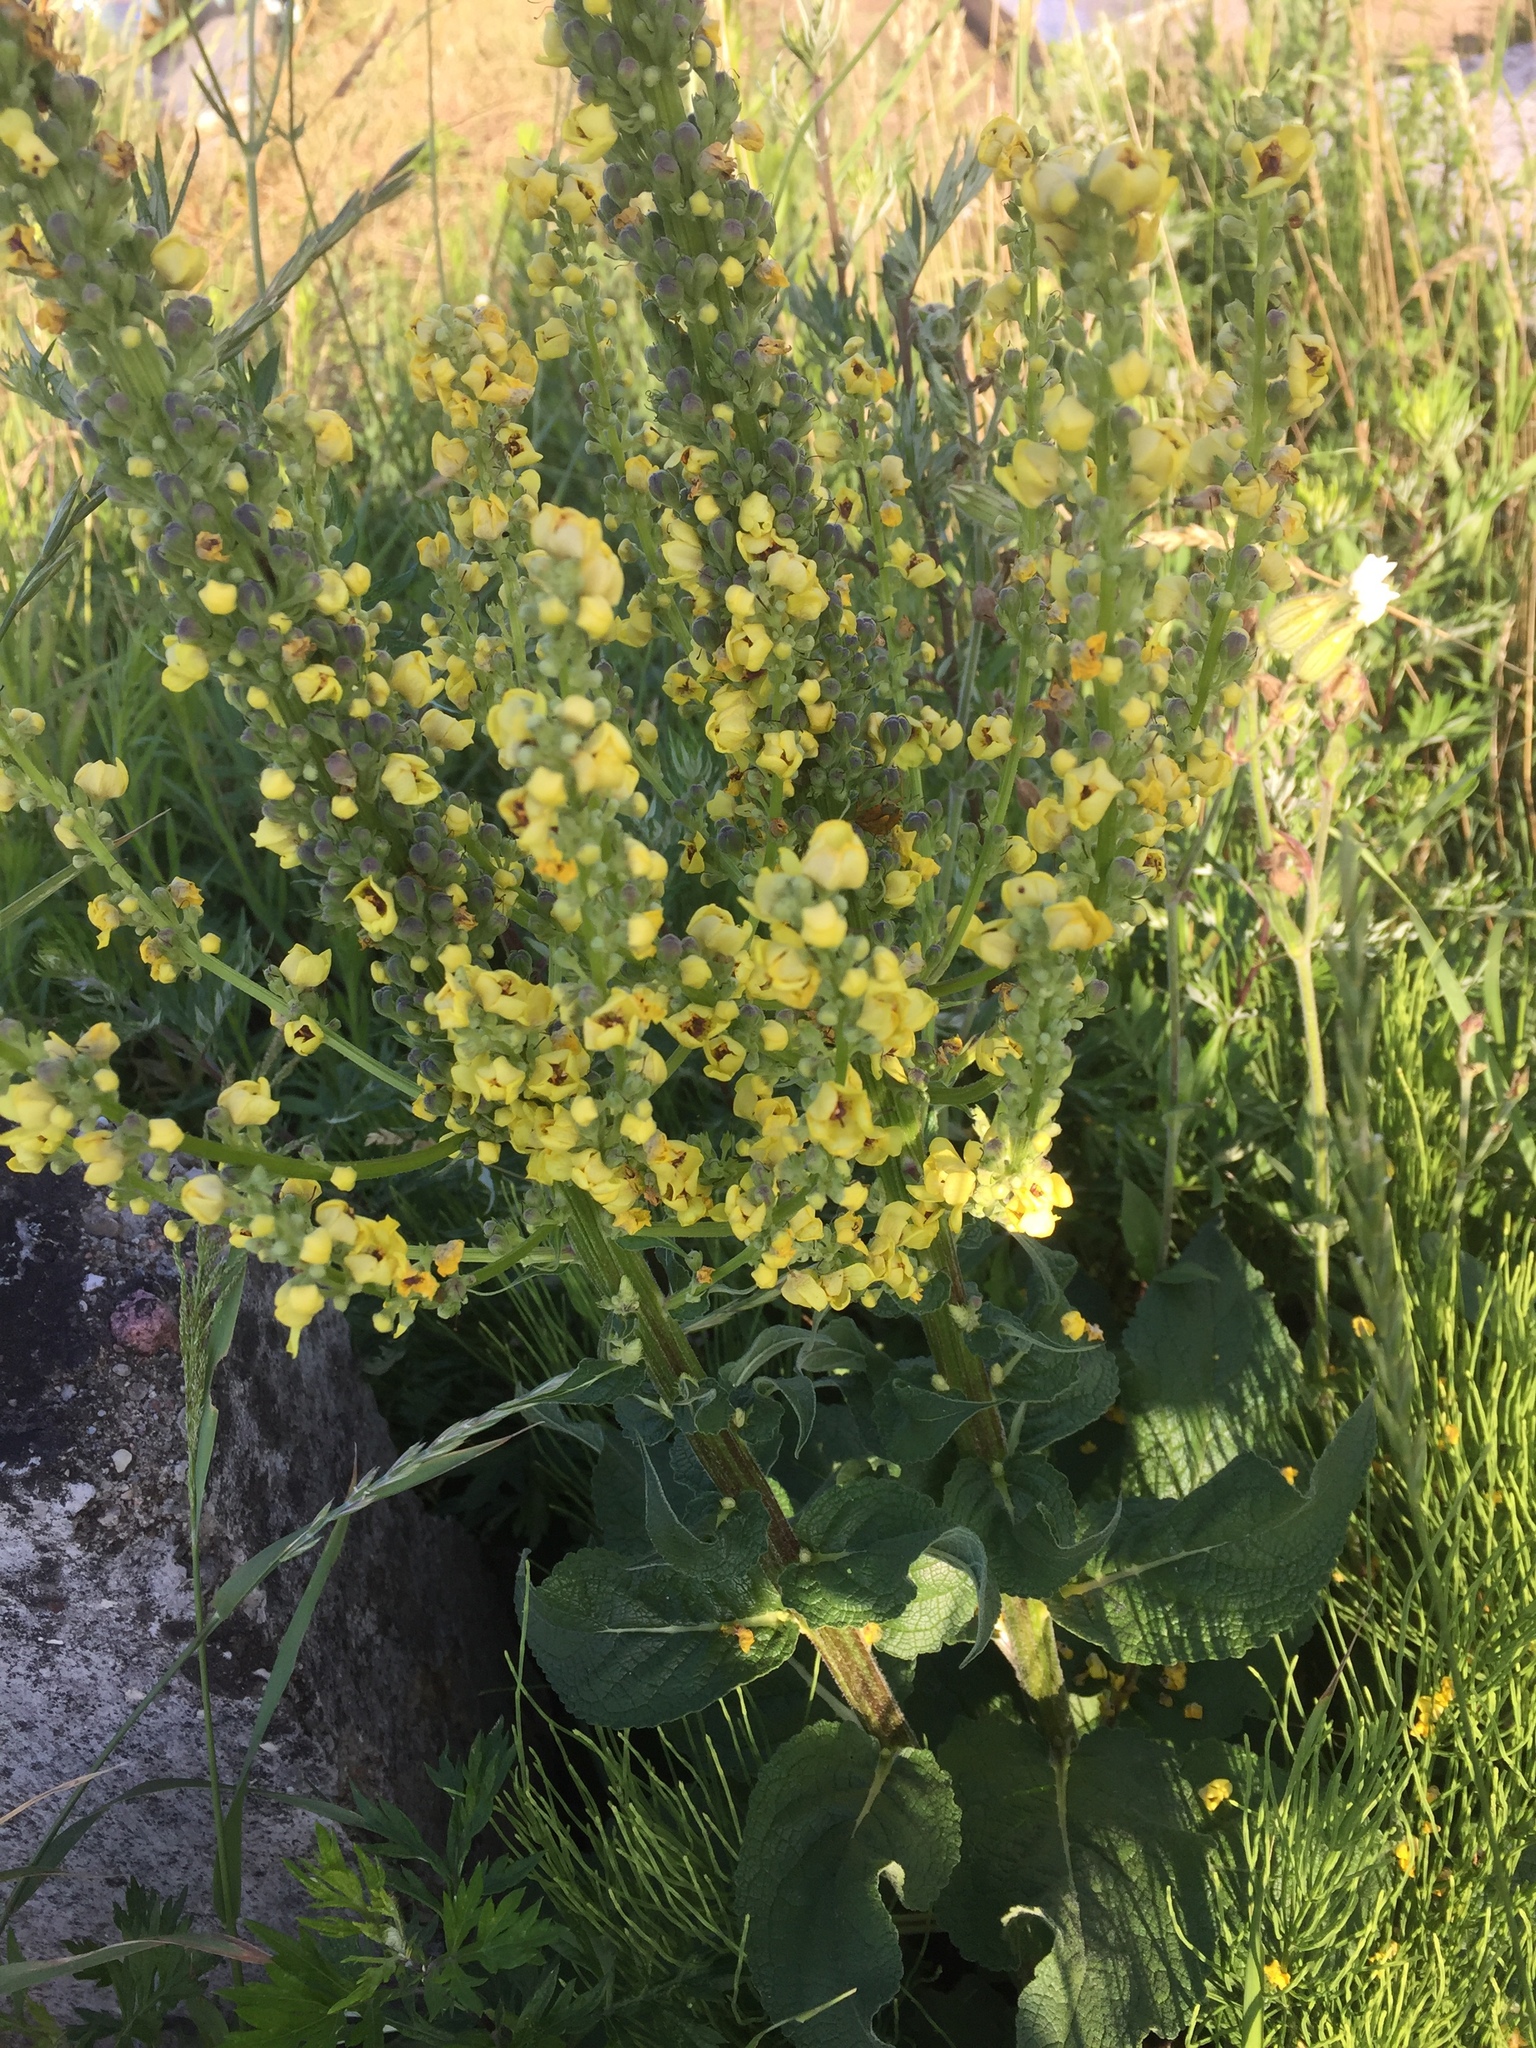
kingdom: Plantae
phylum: Tracheophyta
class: Magnoliopsida
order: Lamiales
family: Scrophulariaceae
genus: Verbascum
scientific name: Verbascum nigrum
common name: Dark mullein
